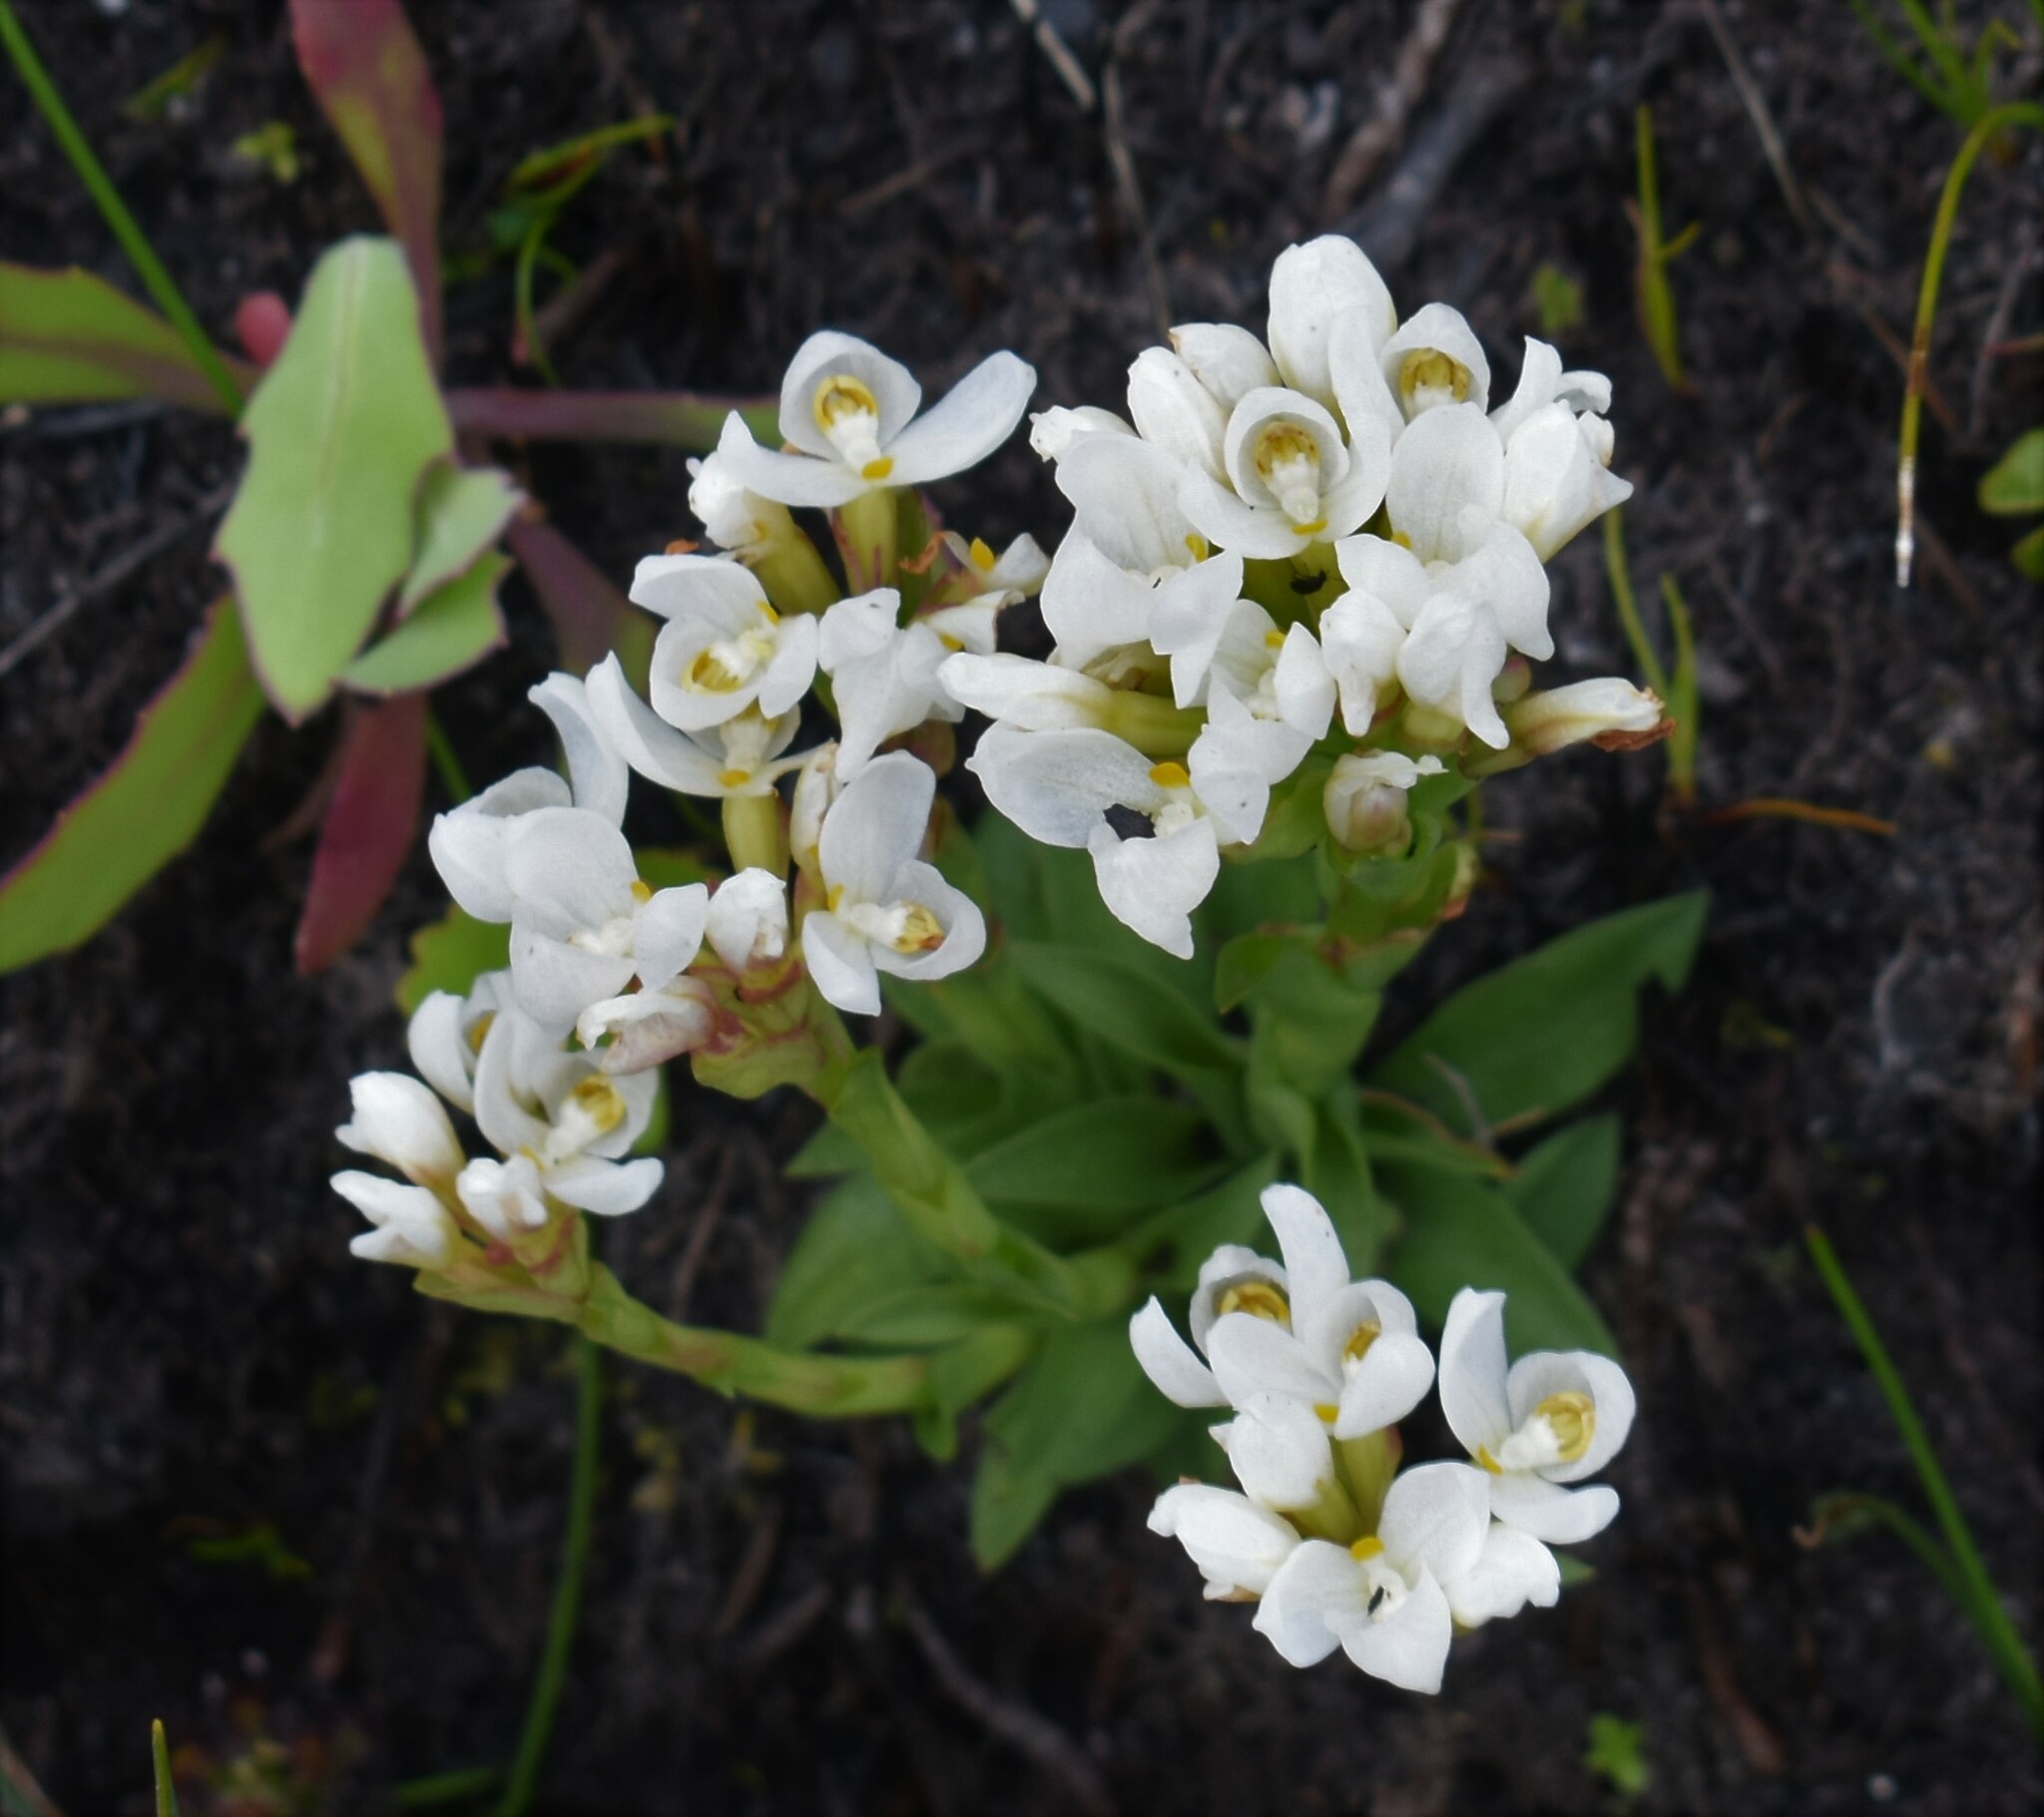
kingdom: Plantae
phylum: Tracheophyta
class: Liliopsida
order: Asparagales
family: Orchidaceae
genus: Disa
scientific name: Disa richardiana
